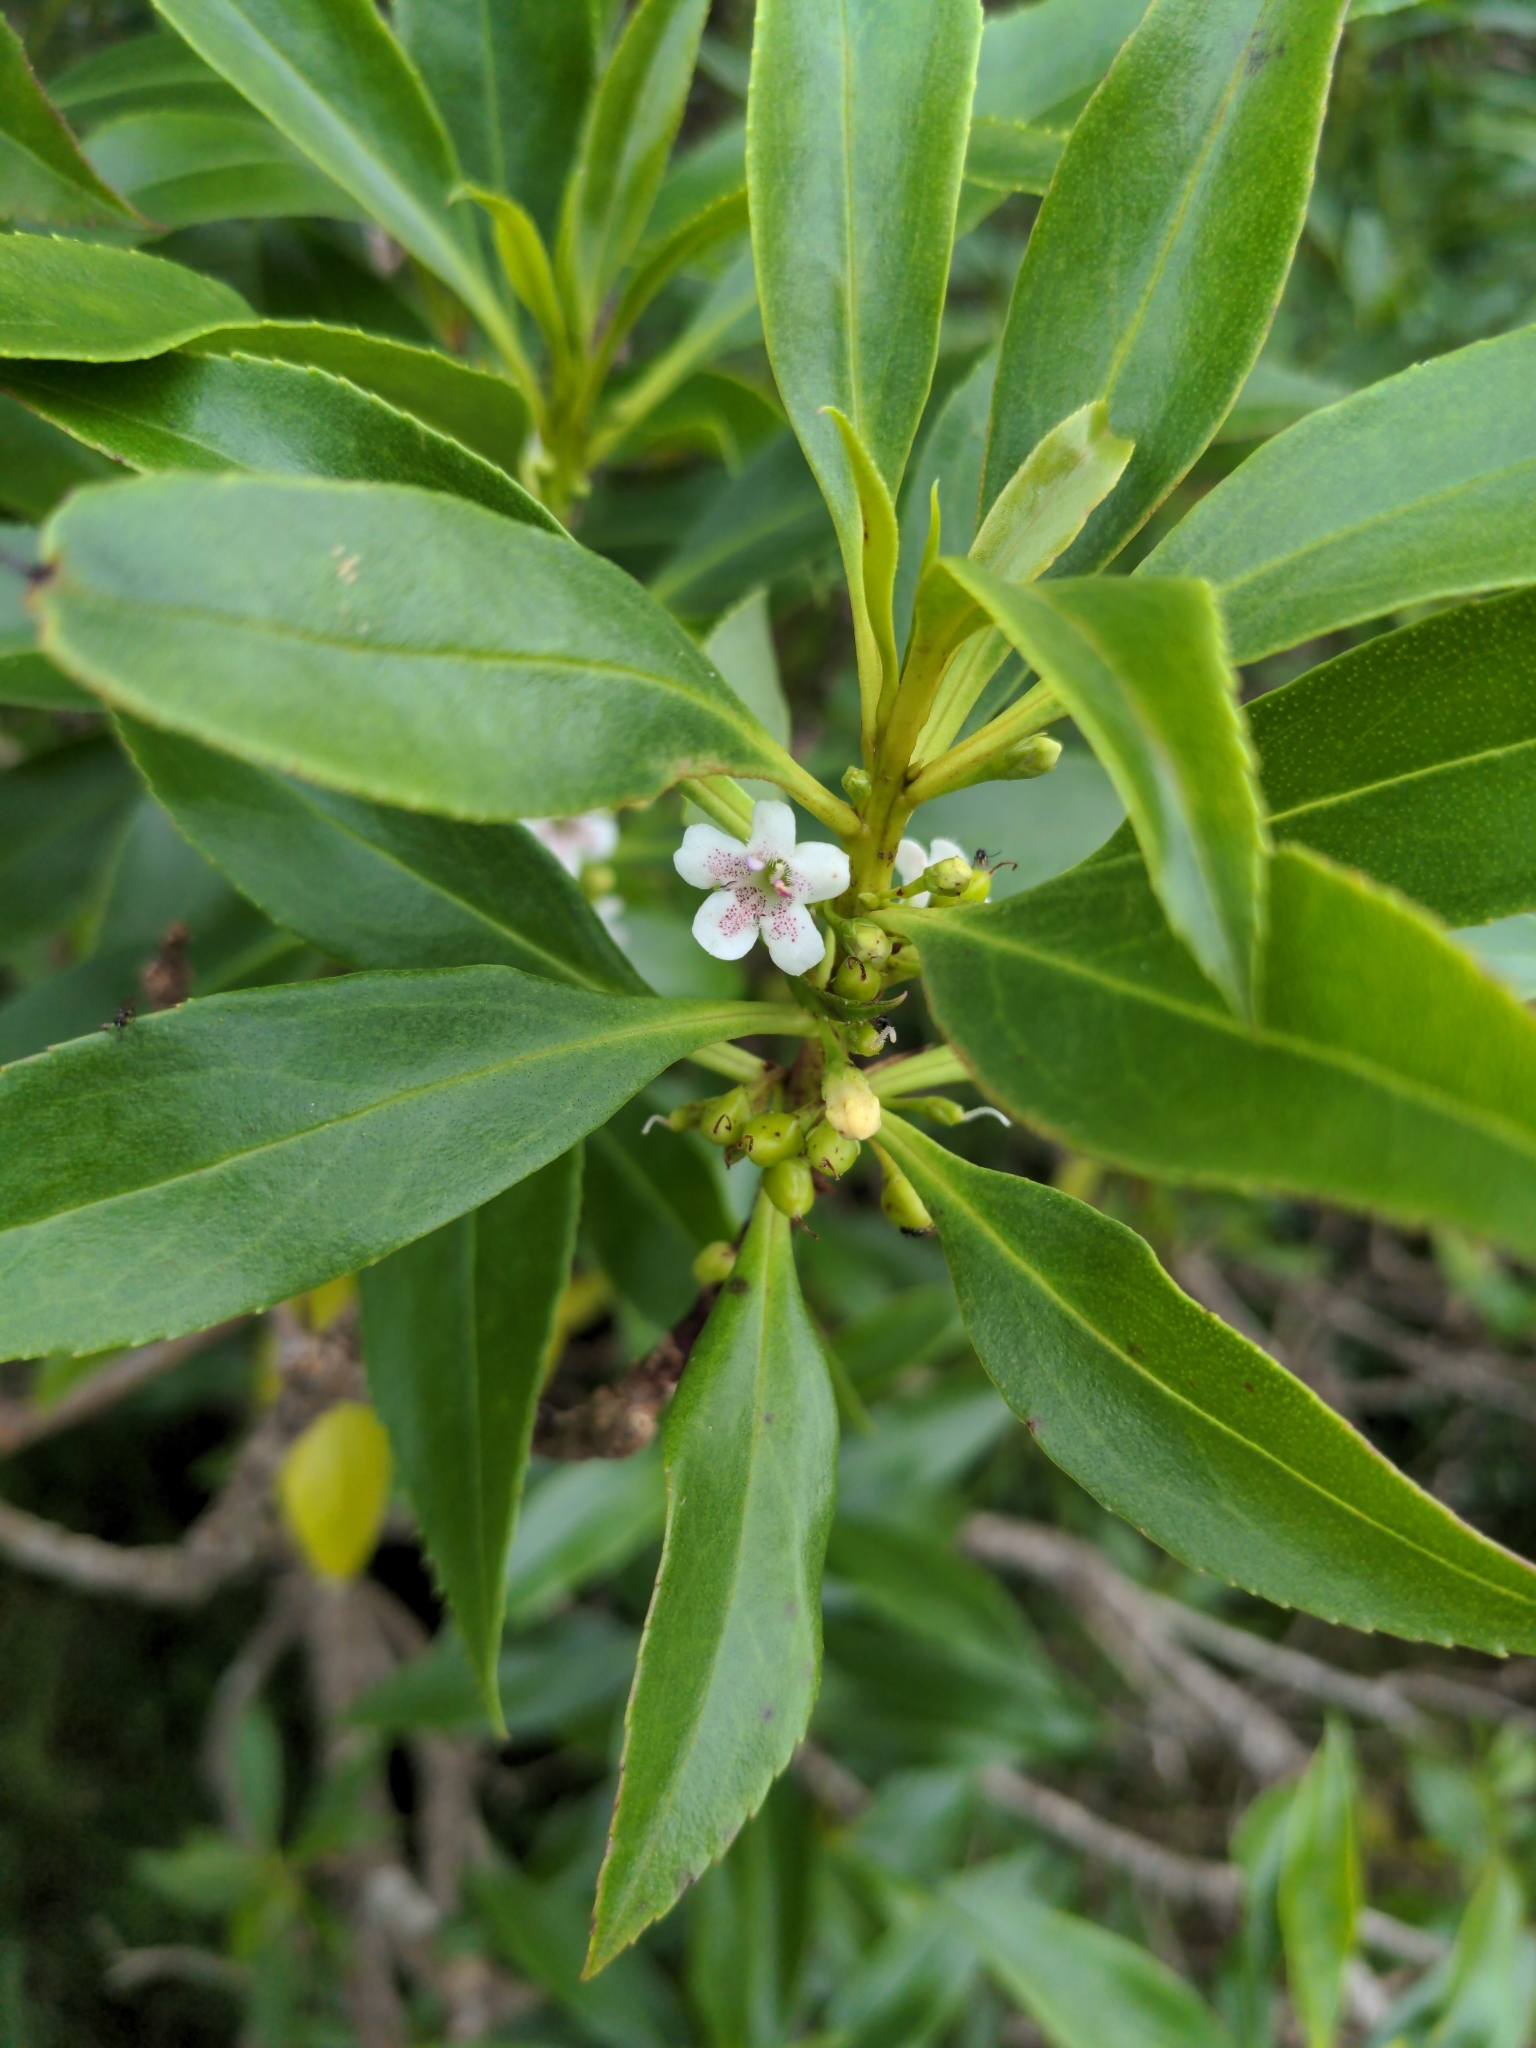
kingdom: Plantae
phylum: Tracheophyta
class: Magnoliopsida
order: Lamiales
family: Scrophulariaceae
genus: Myoporum
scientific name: Myoporum laetum
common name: Ngaio tree
